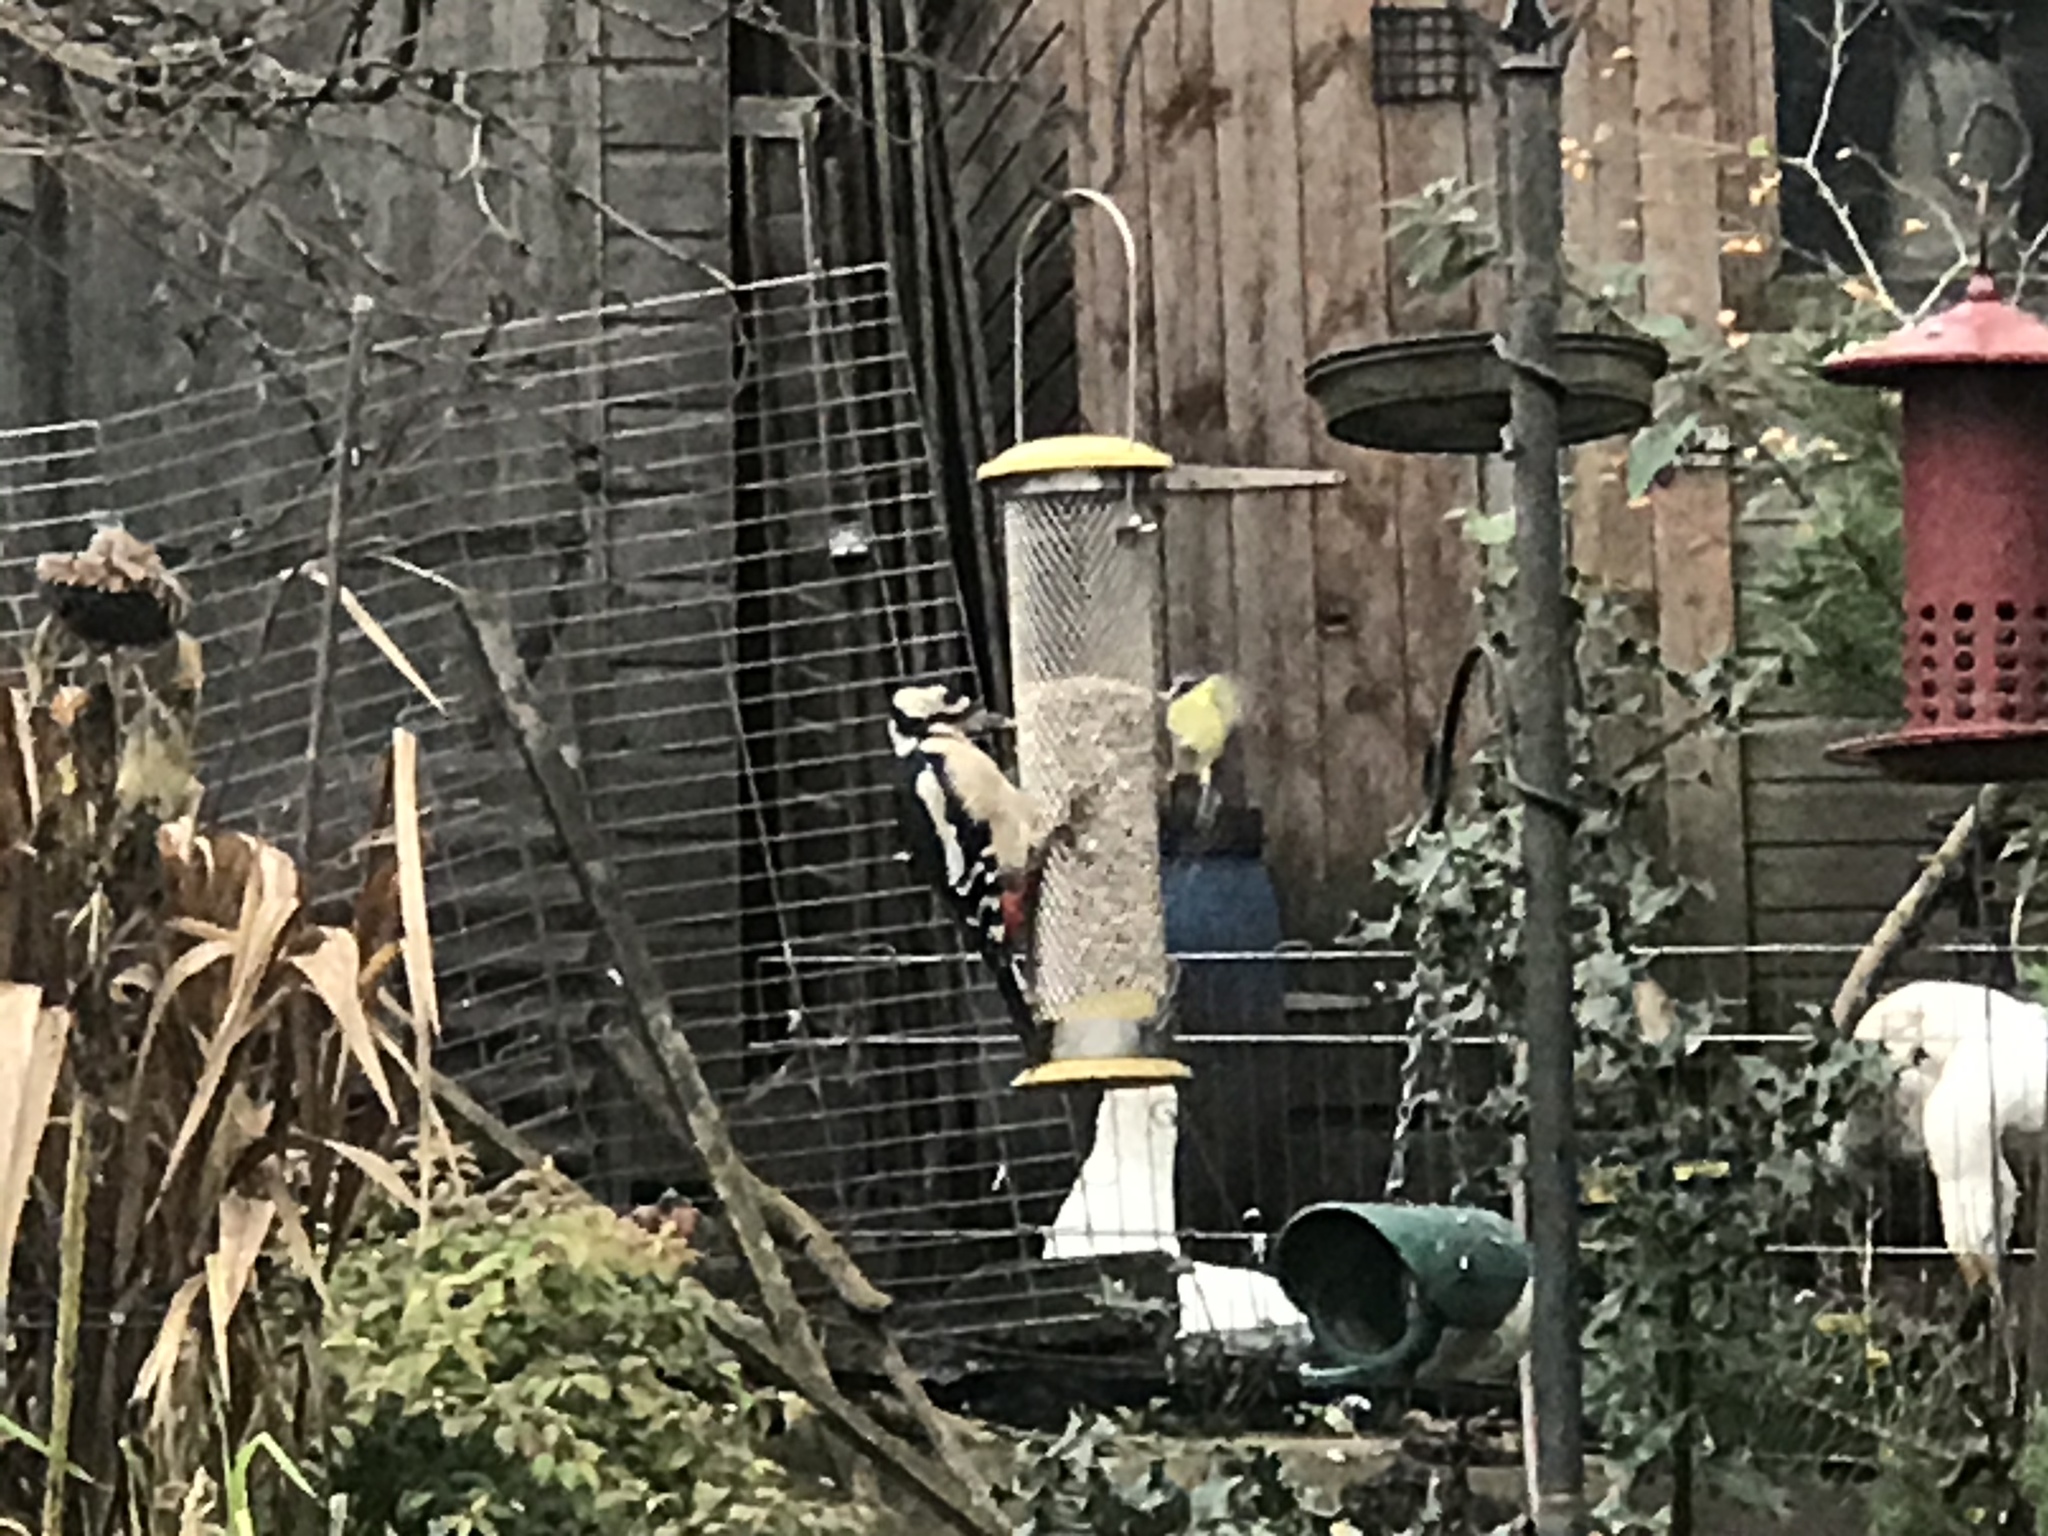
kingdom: Animalia
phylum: Chordata
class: Aves
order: Piciformes
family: Picidae
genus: Dendrocopos
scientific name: Dendrocopos major
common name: Great spotted woodpecker
